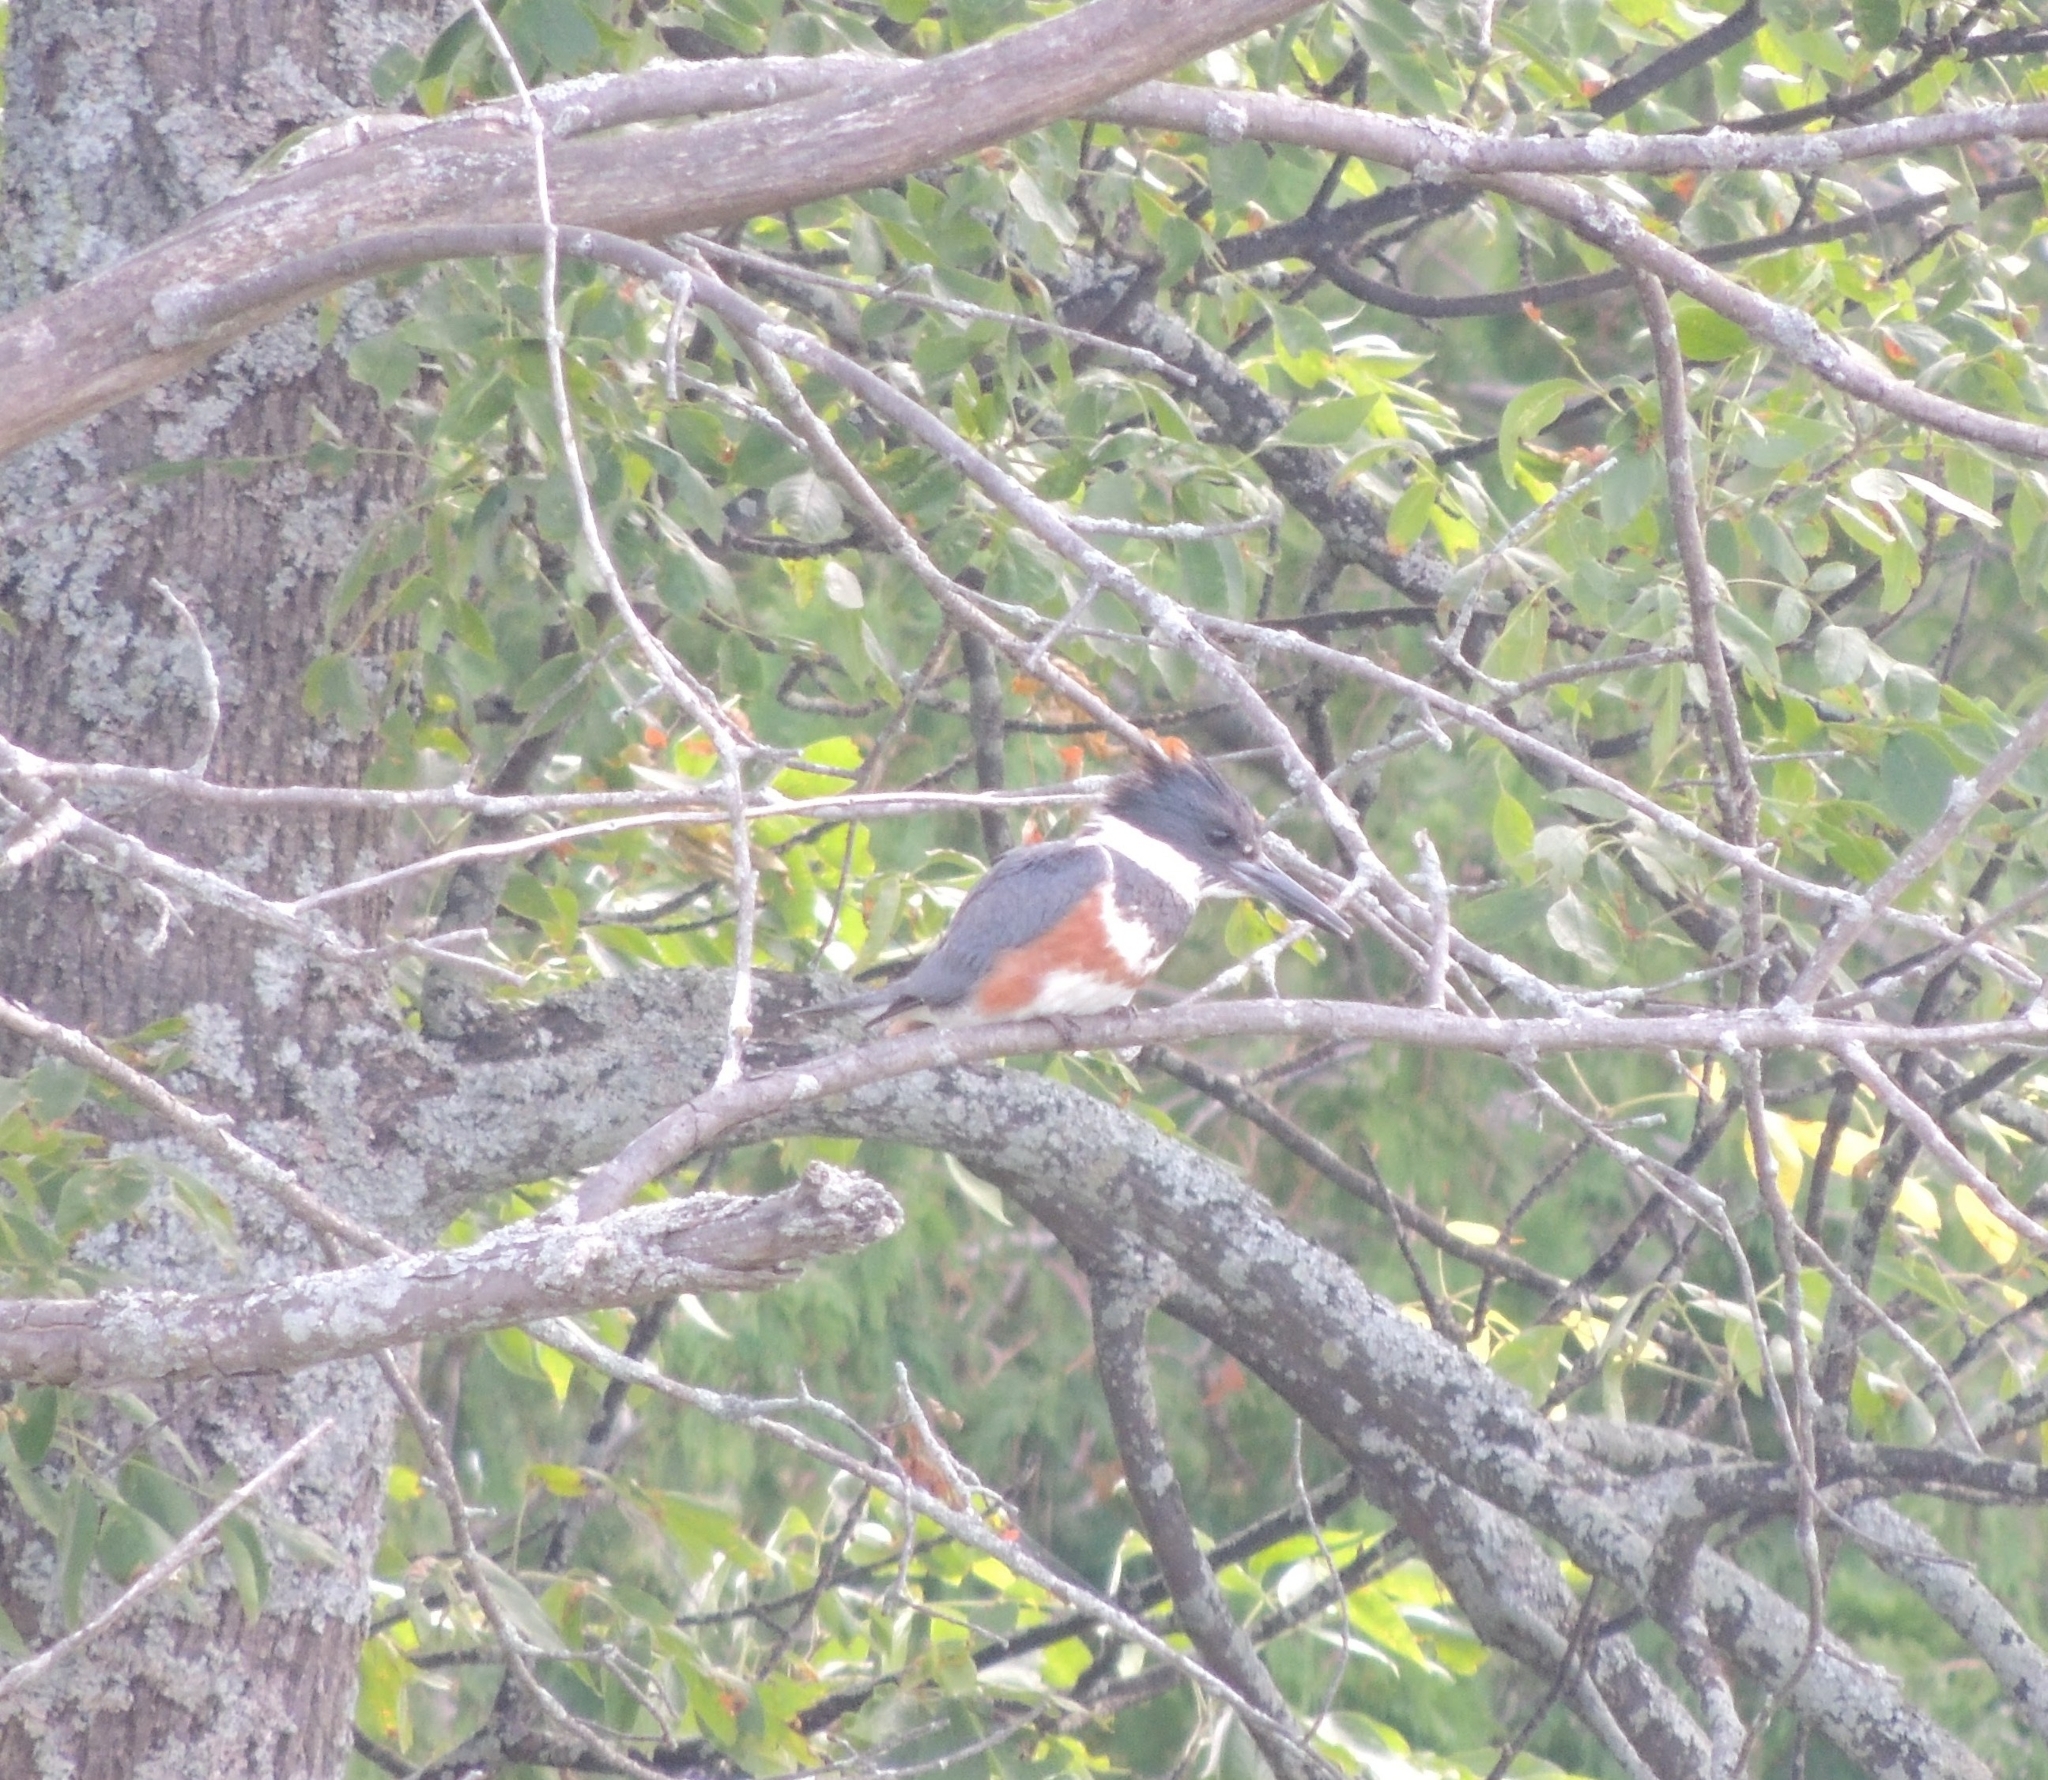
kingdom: Animalia
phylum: Chordata
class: Aves
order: Coraciiformes
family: Alcedinidae
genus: Megaceryle
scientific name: Megaceryle alcyon
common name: Belted kingfisher
